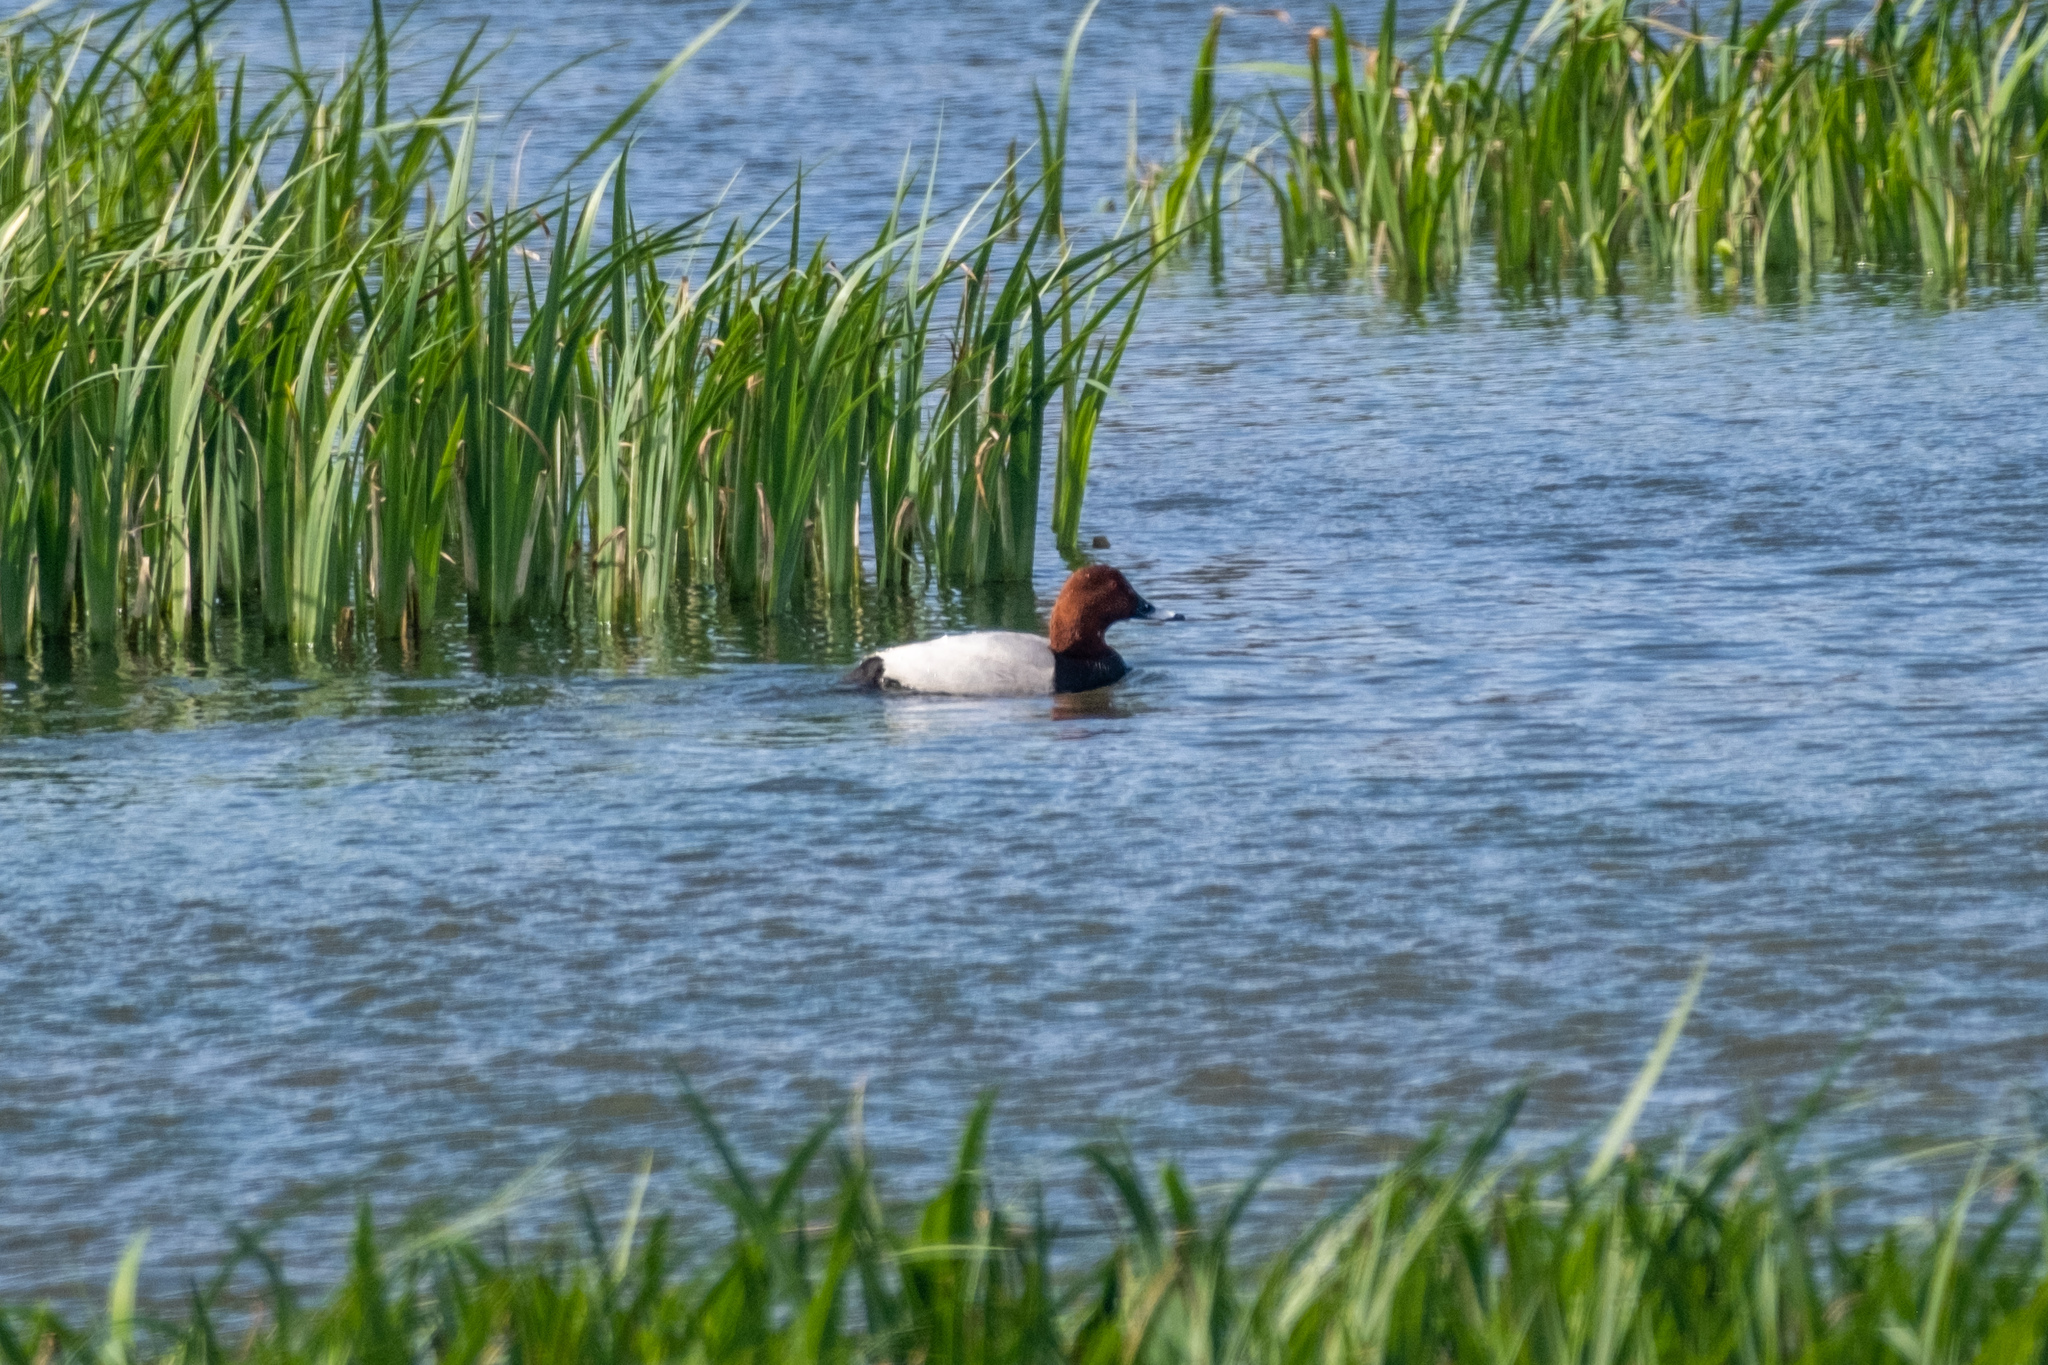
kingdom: Animalia
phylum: Chordata
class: Aves
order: Anseriformes
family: Anatidae
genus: Aythya
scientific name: Aythya ferina
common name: Common pochard
